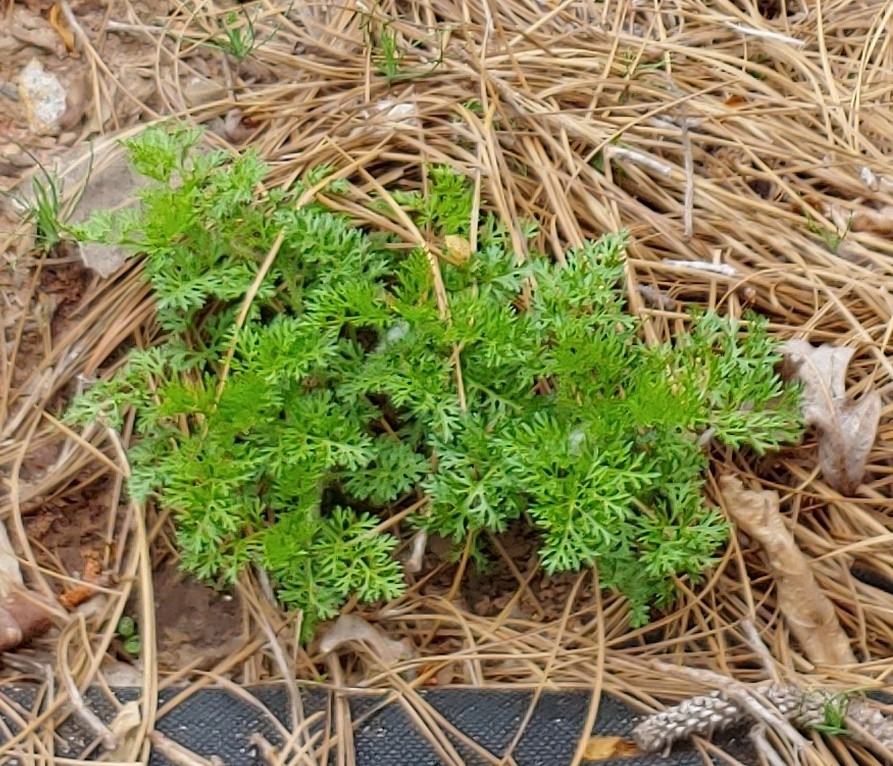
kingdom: Plantae
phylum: Tracheophyta
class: Magnoliopsida
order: Asterales
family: Asteraceae
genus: Eupatorium
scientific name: Eupatorium capillifolium
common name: Dog-fennel
